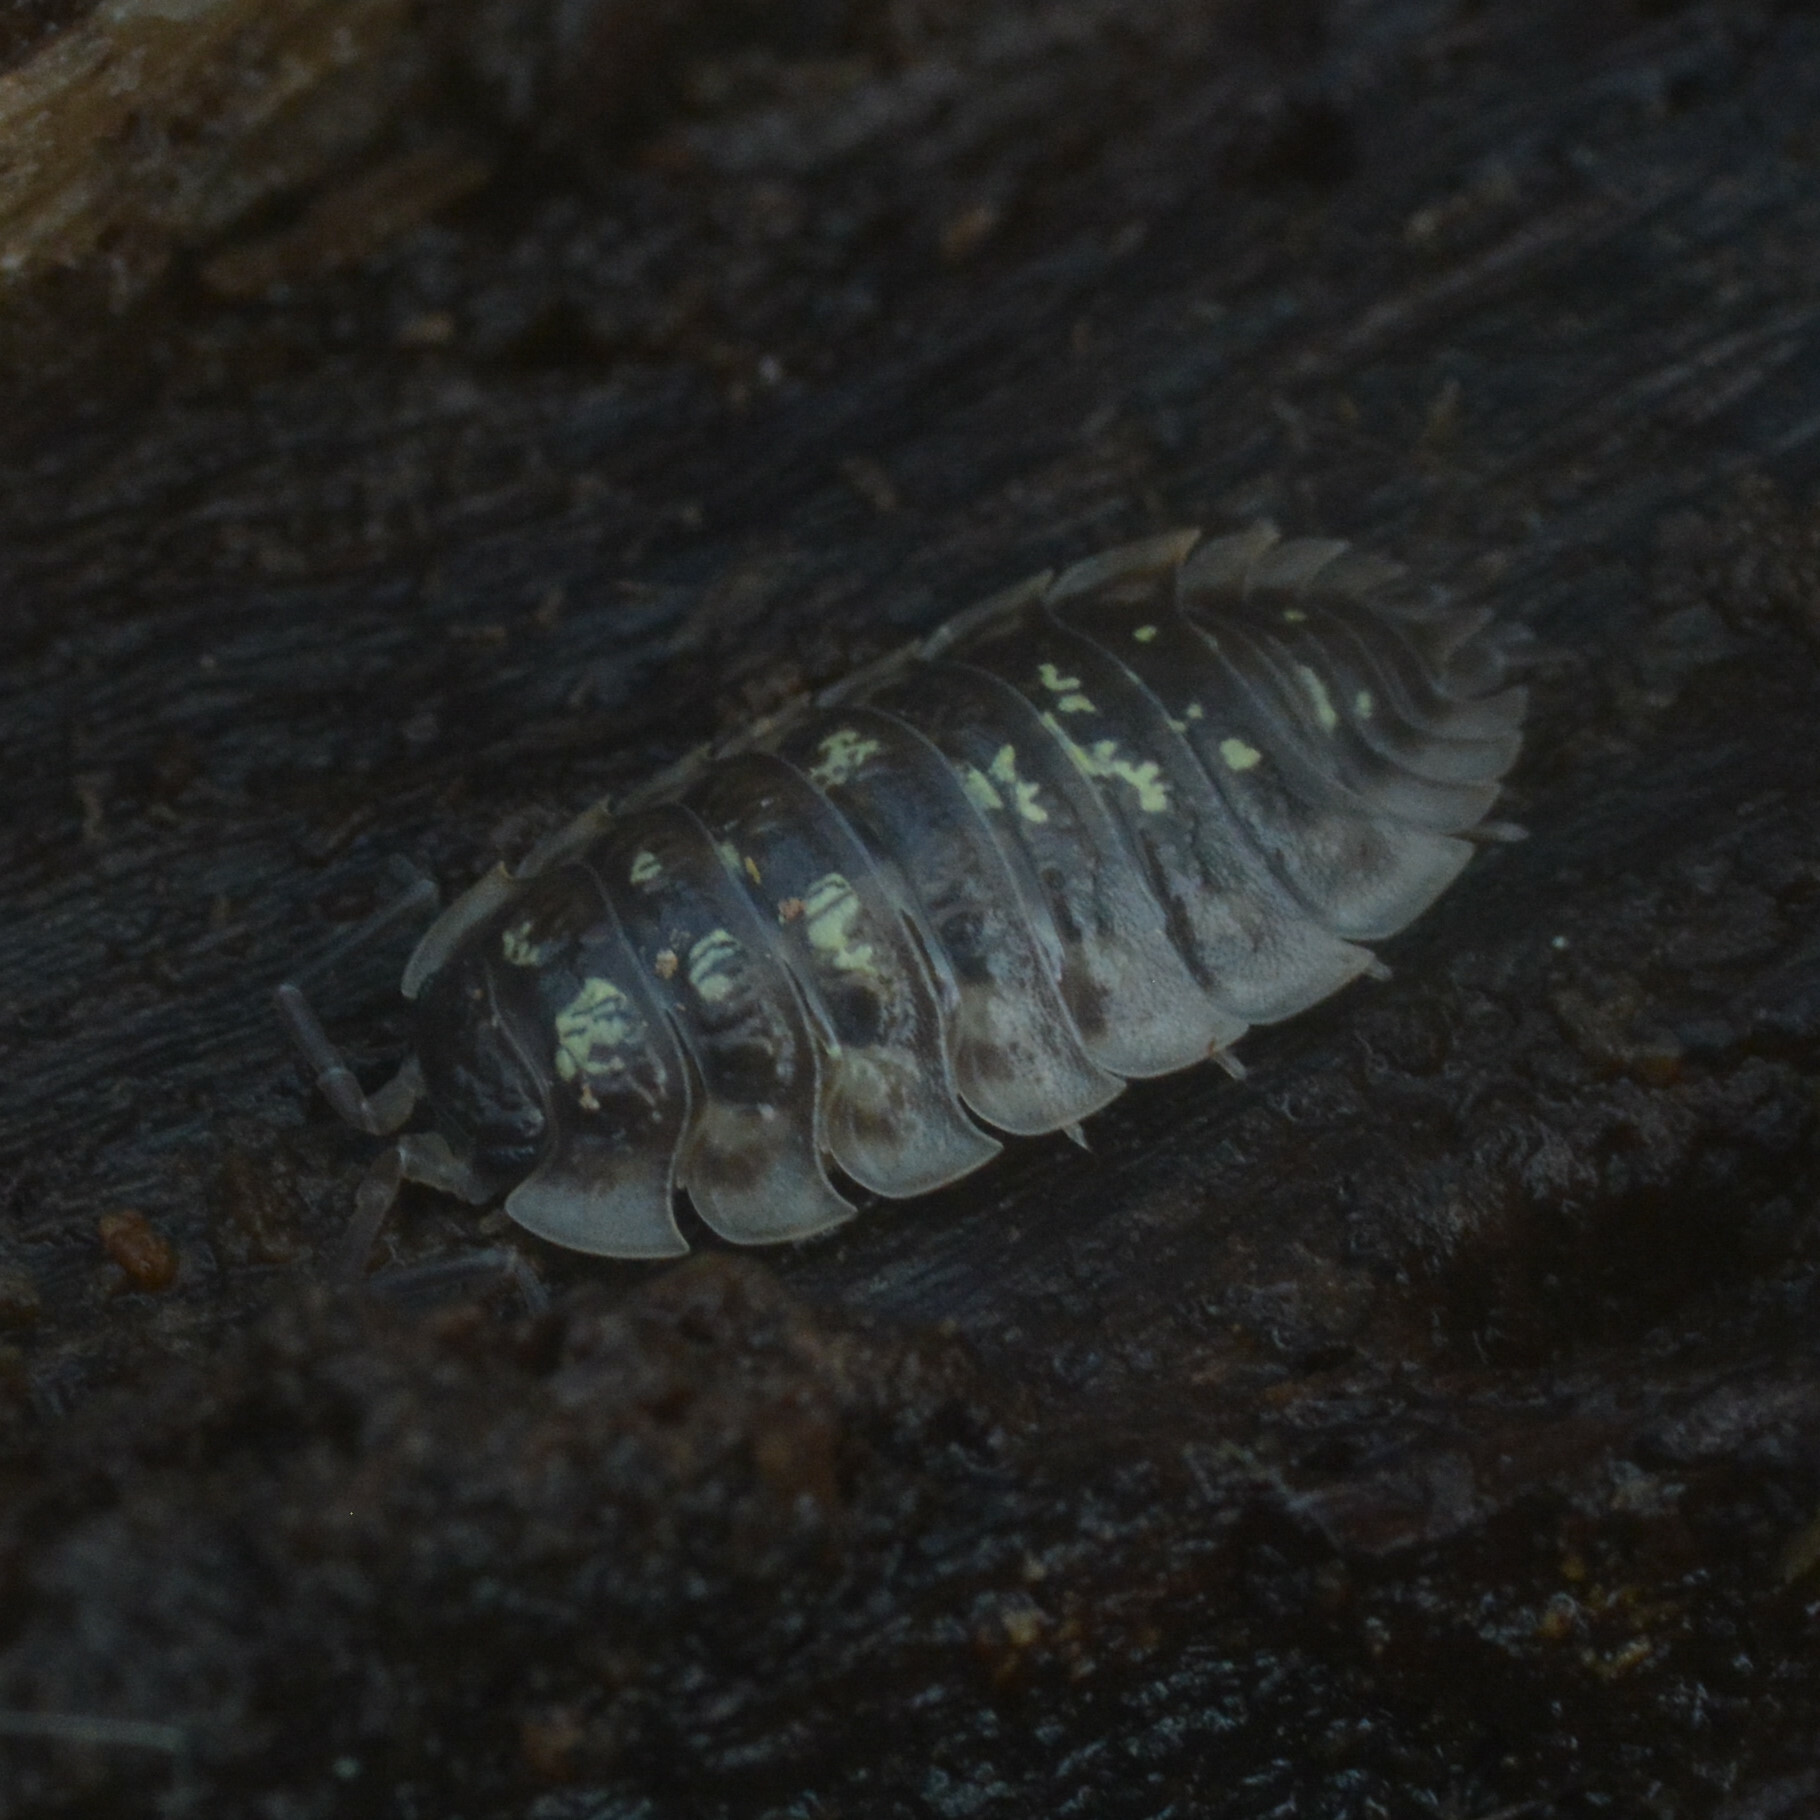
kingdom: Animalia
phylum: Arthropoda
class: Malacostraca
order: Isopoda
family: Oniscidae
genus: Oniscus
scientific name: Oniscus asellus
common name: Common shiny woodlouse
